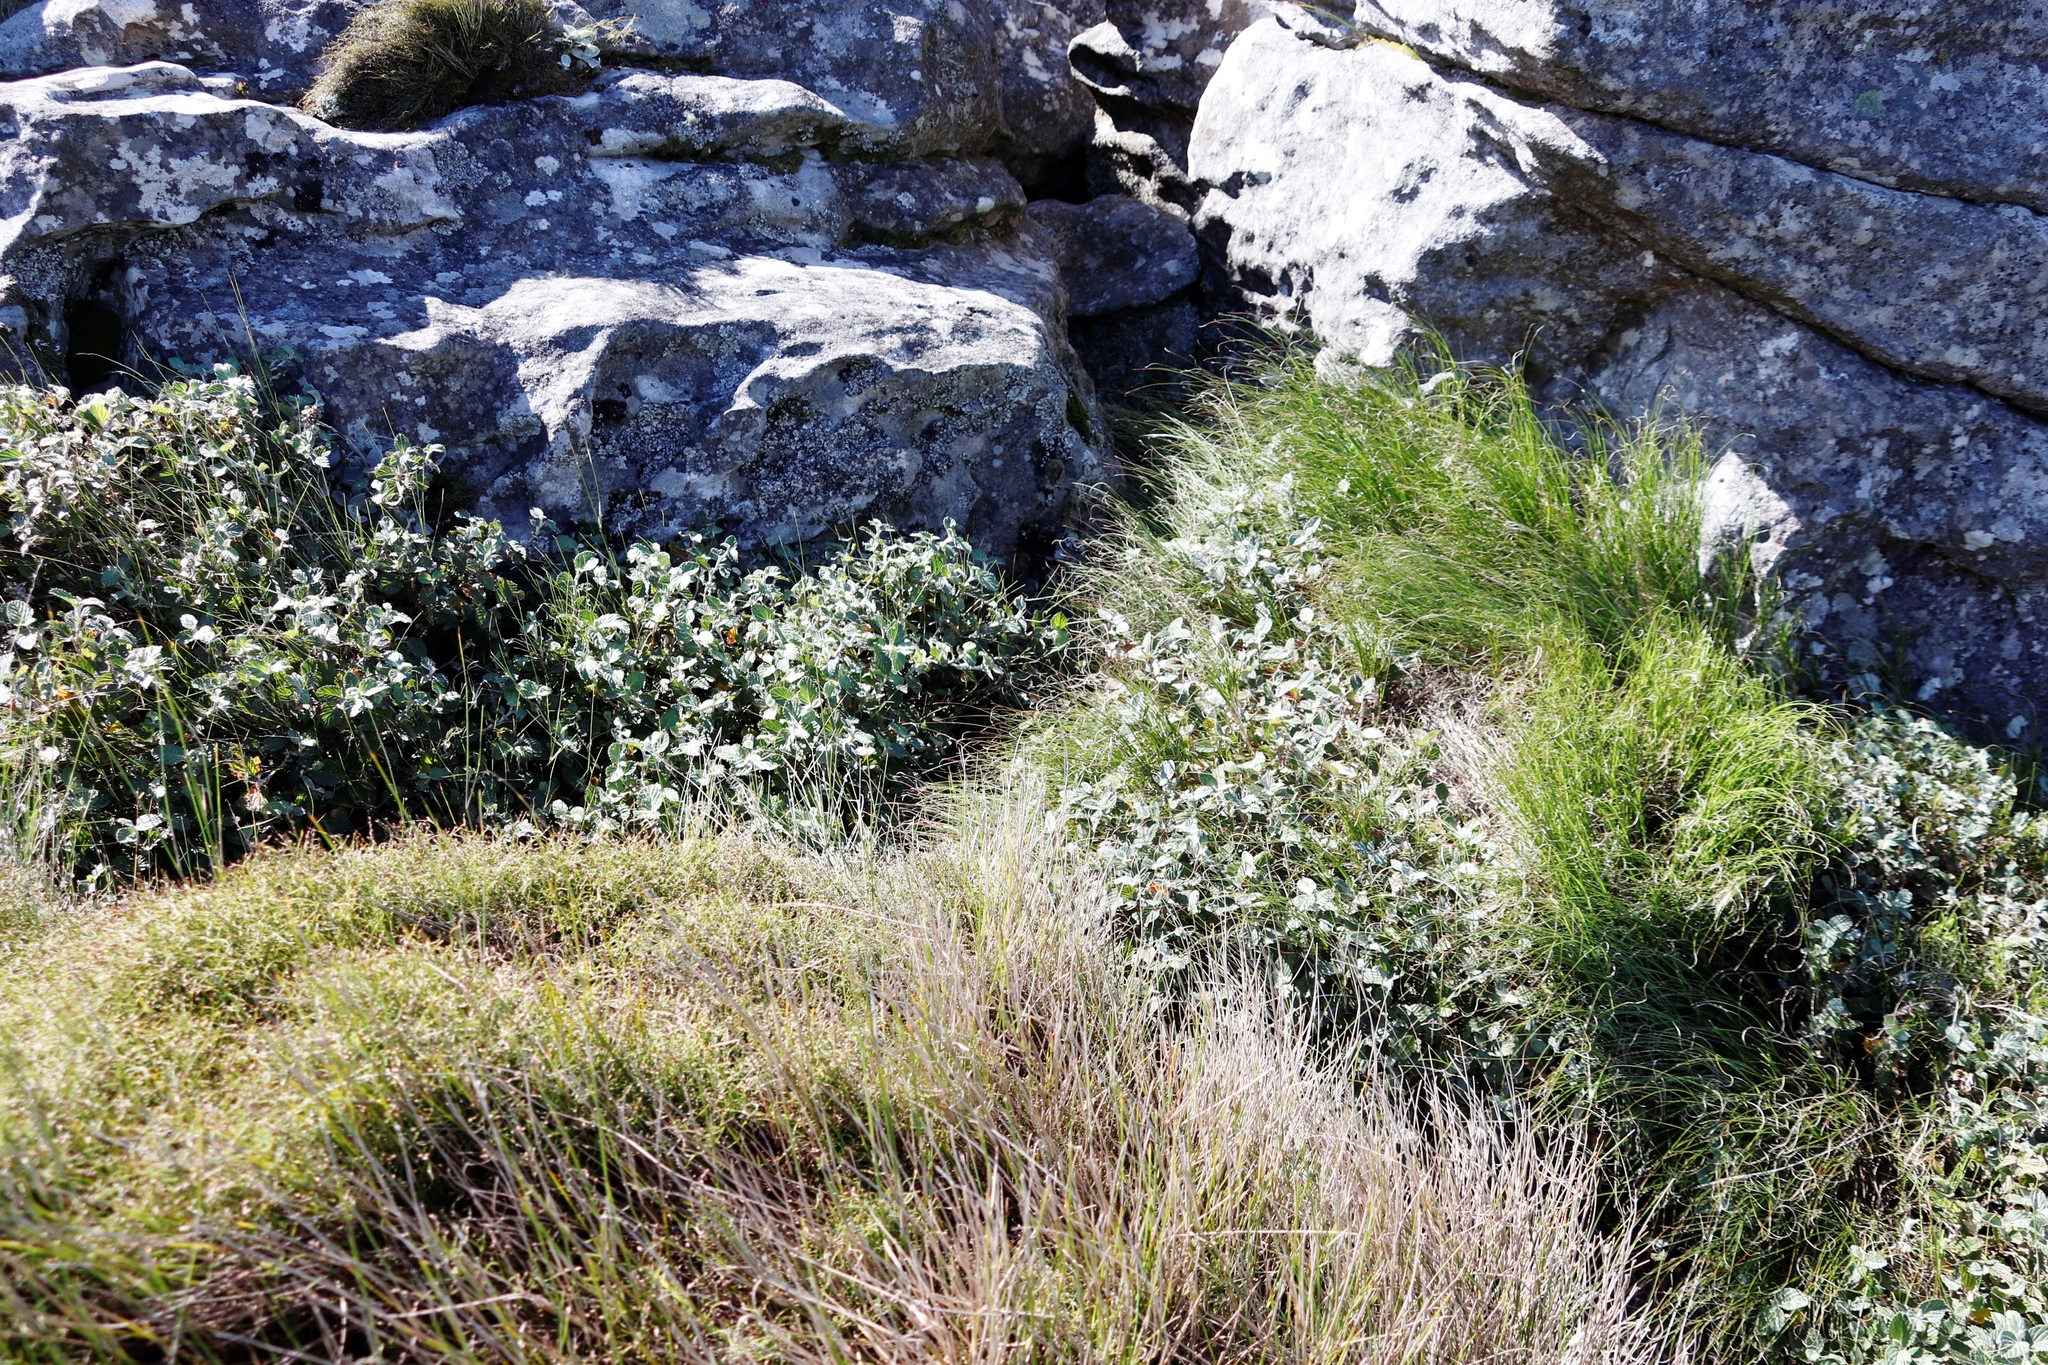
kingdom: Plantae
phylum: Tracheophyta
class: Magnoliopsida
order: Rosales
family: Rosaceae
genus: Cliffortia
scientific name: Cliffortia odorata
